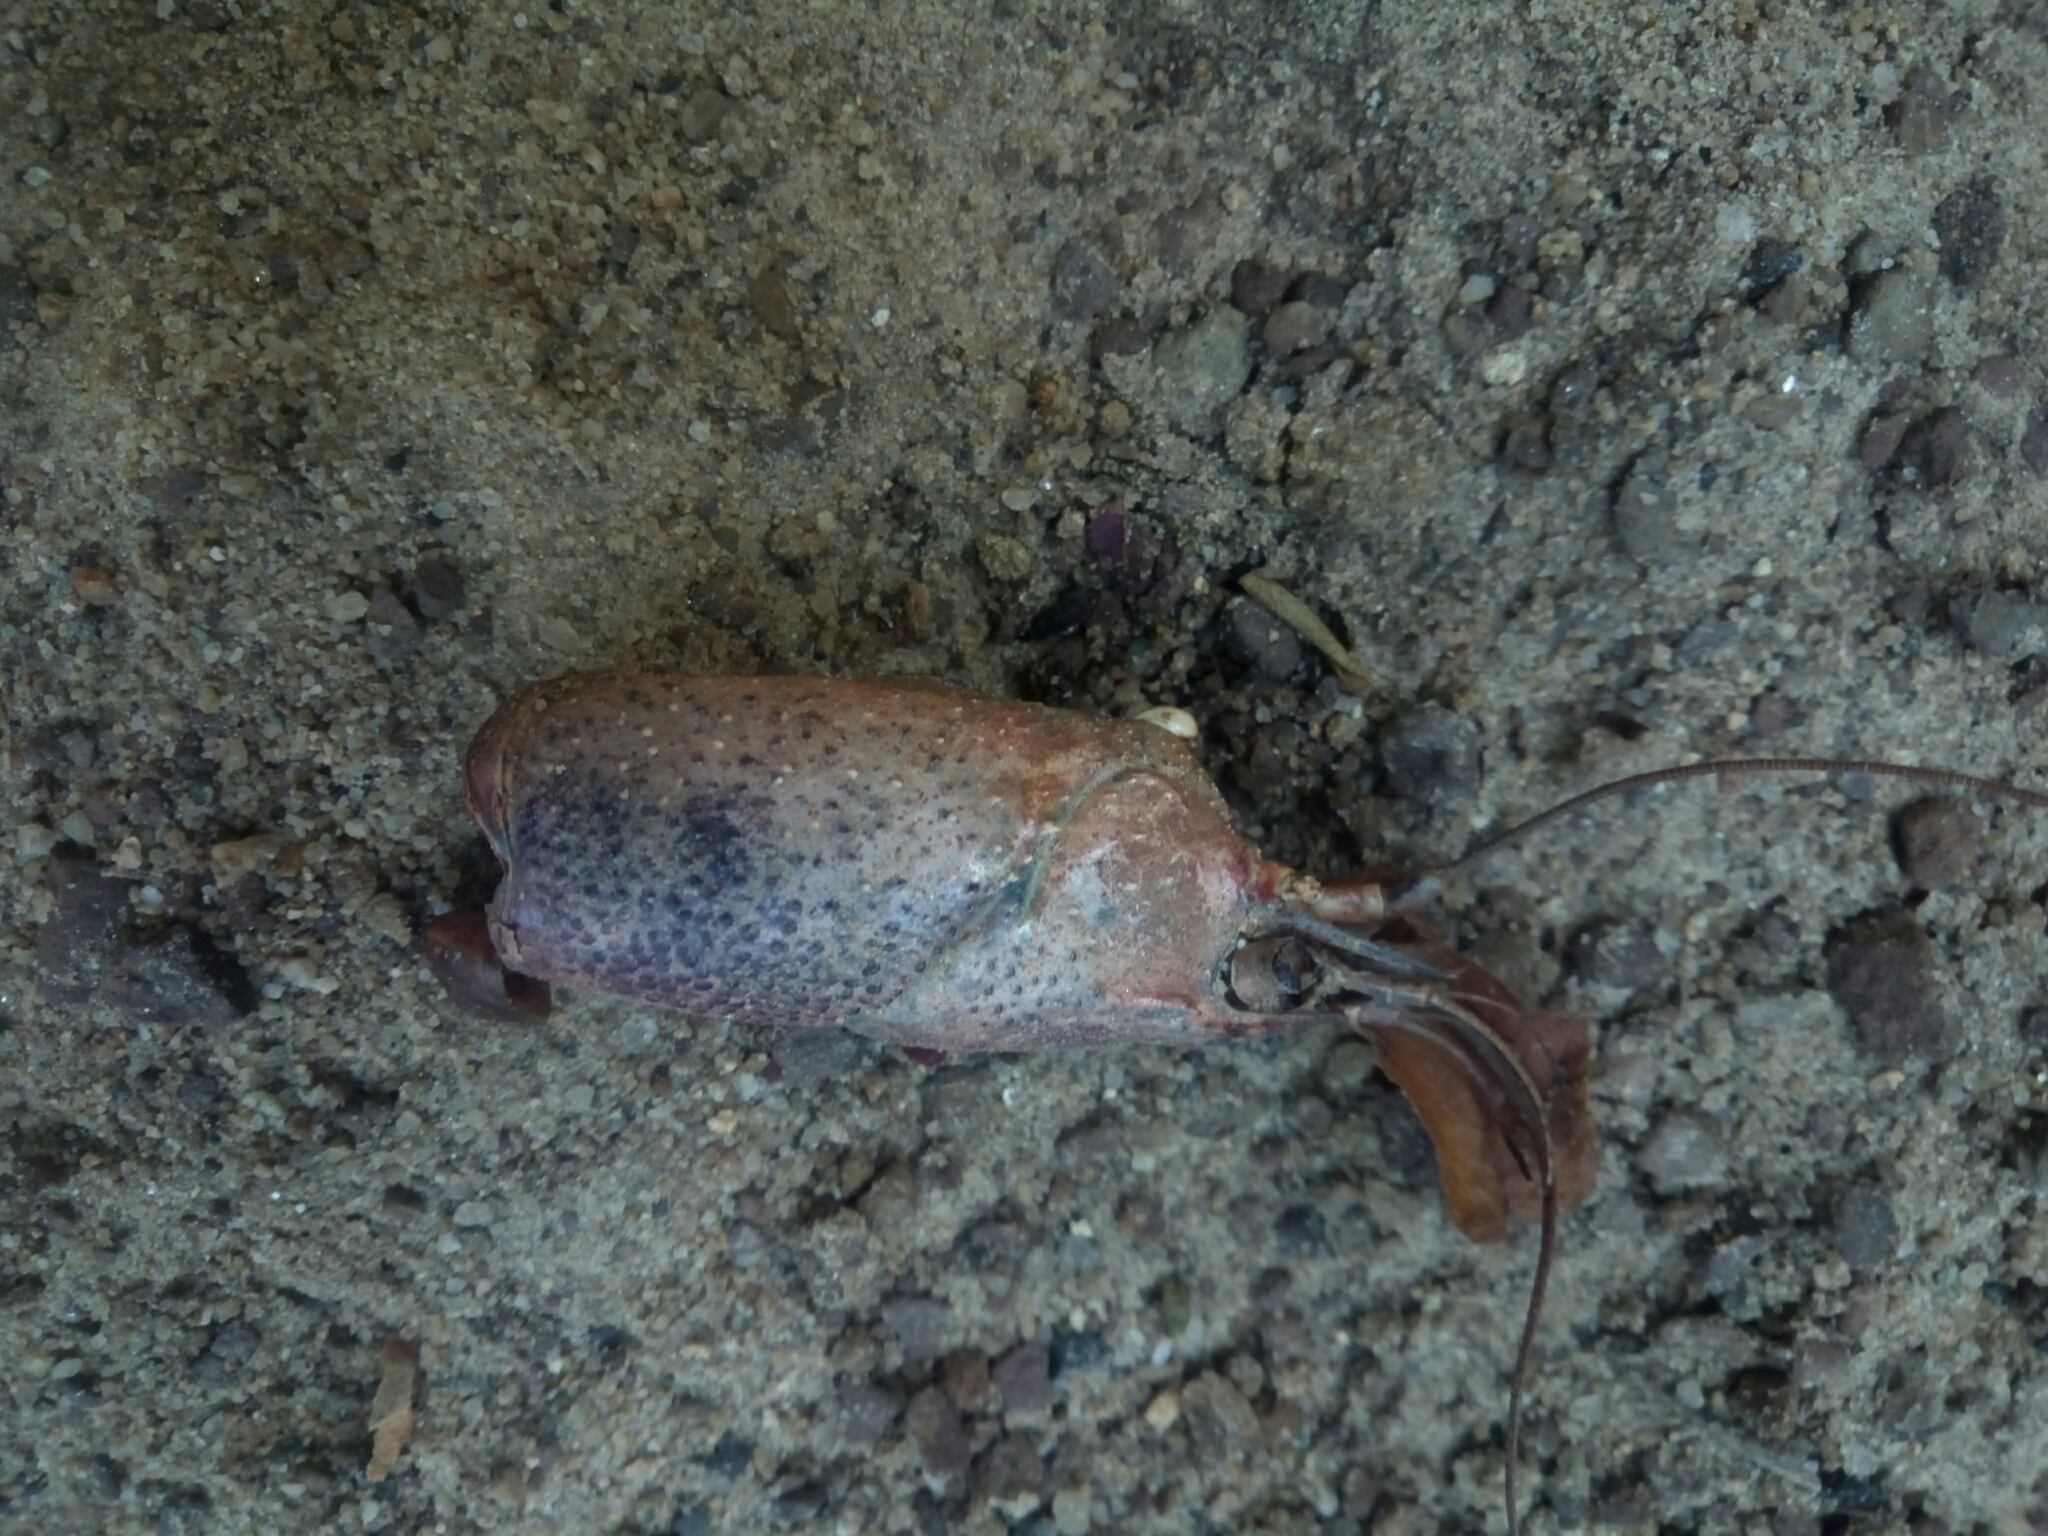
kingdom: Animalia
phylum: Arthropoda
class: Malacostraca
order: Decapoda
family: Cambaridae
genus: Procambarus
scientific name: Procambarus clarkii
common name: Red swamp crayfish
